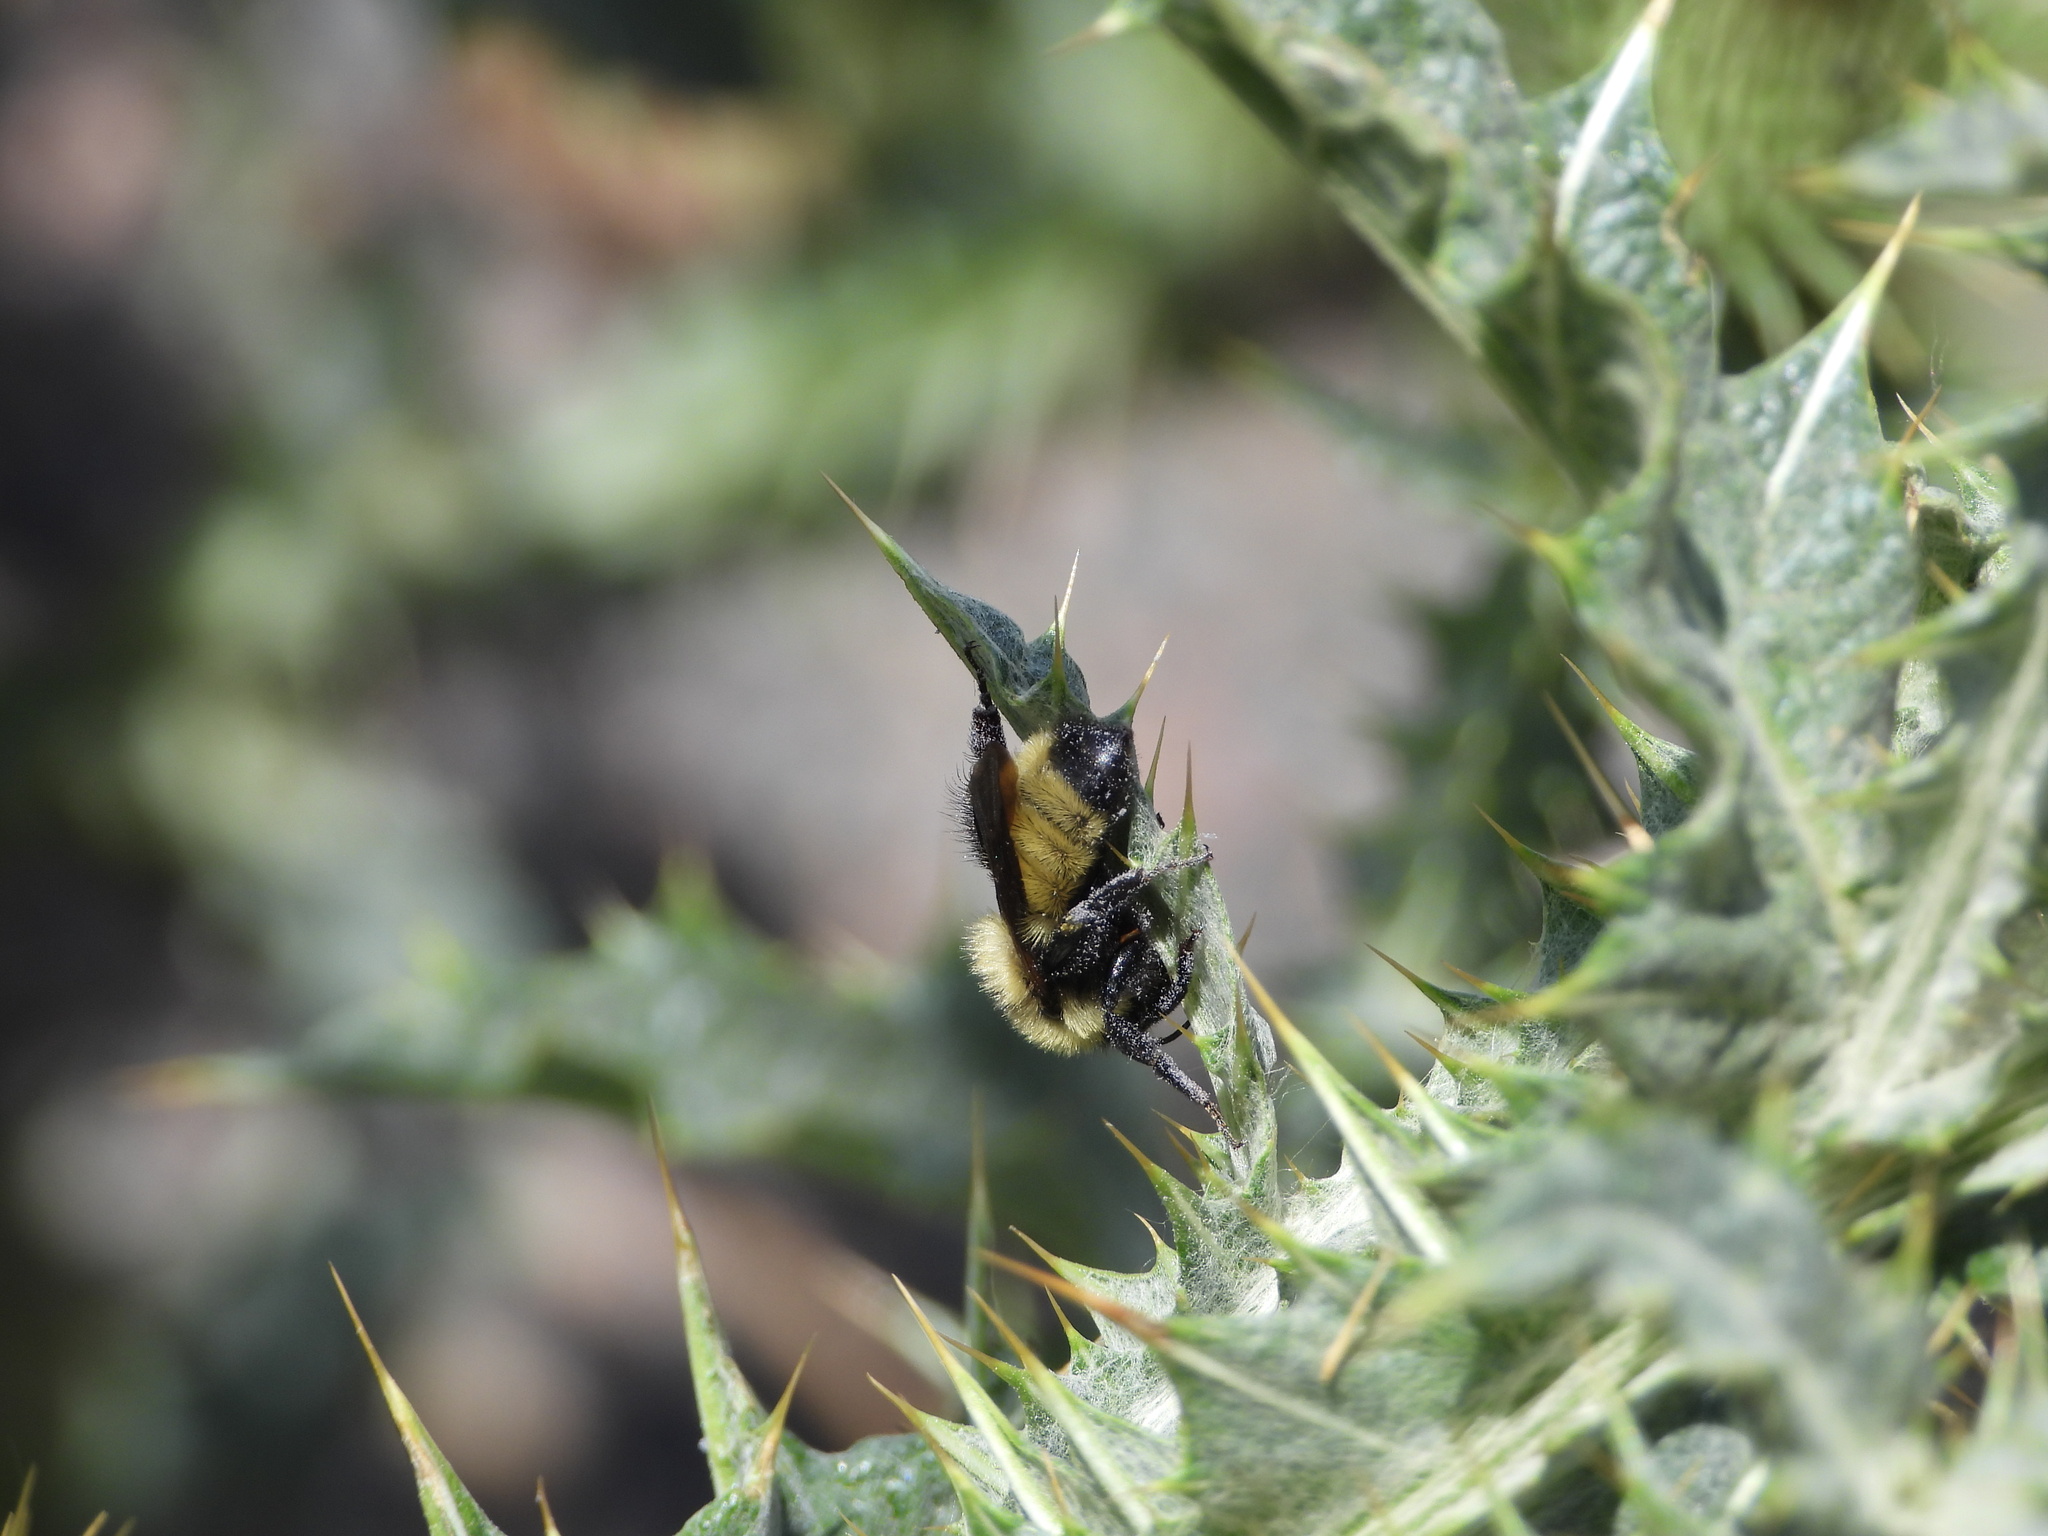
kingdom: Animalia
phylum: Arthropoda
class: Insecta
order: Hymenoptera
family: Apidae
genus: Bombus
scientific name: Bombus fervidus
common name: Yellow bumble bee
